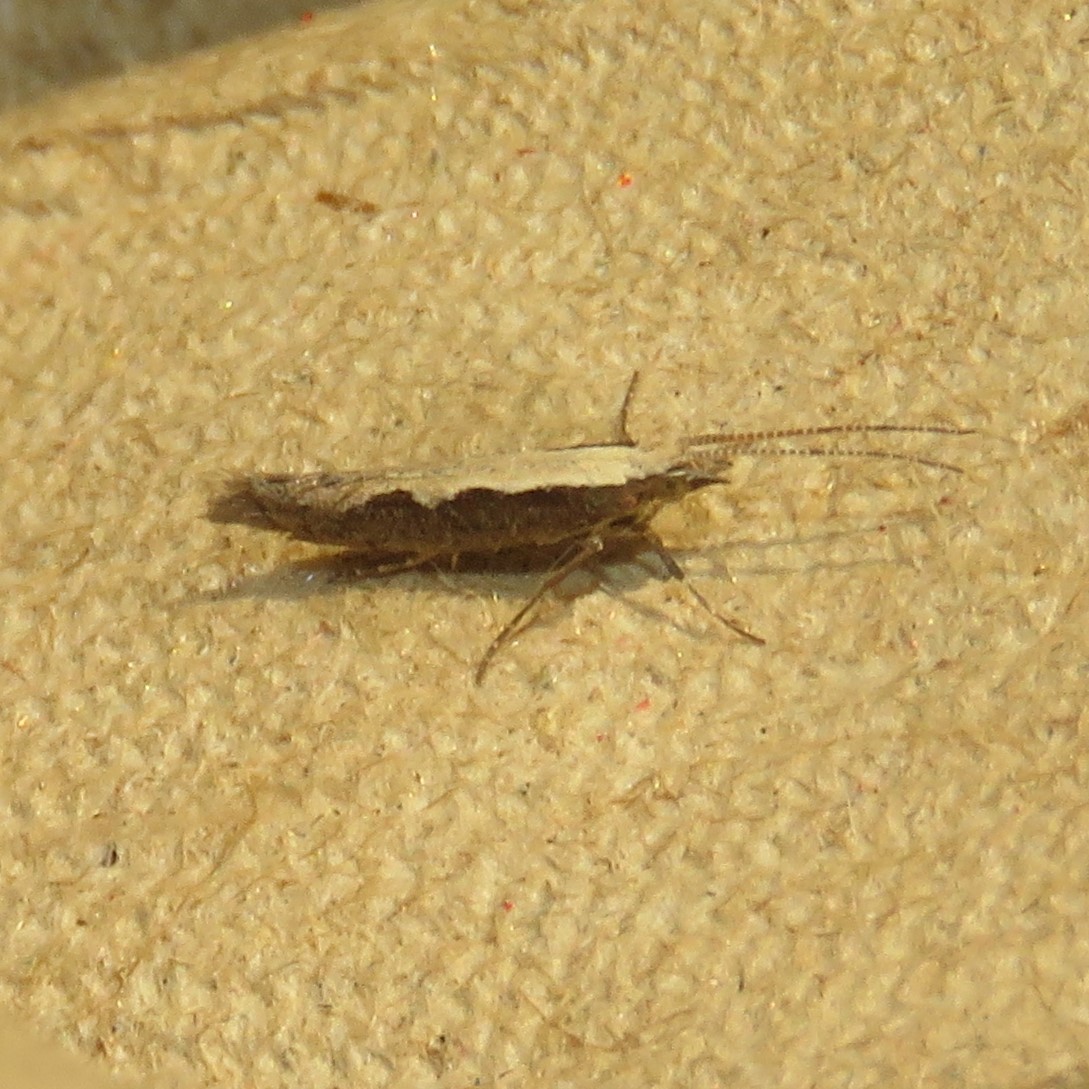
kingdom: Animalia
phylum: Arthropoda
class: Insecta
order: Lepidoptera
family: Plutellidae
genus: Plutella
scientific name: Plutella xylostella
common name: Diamond-back moth
